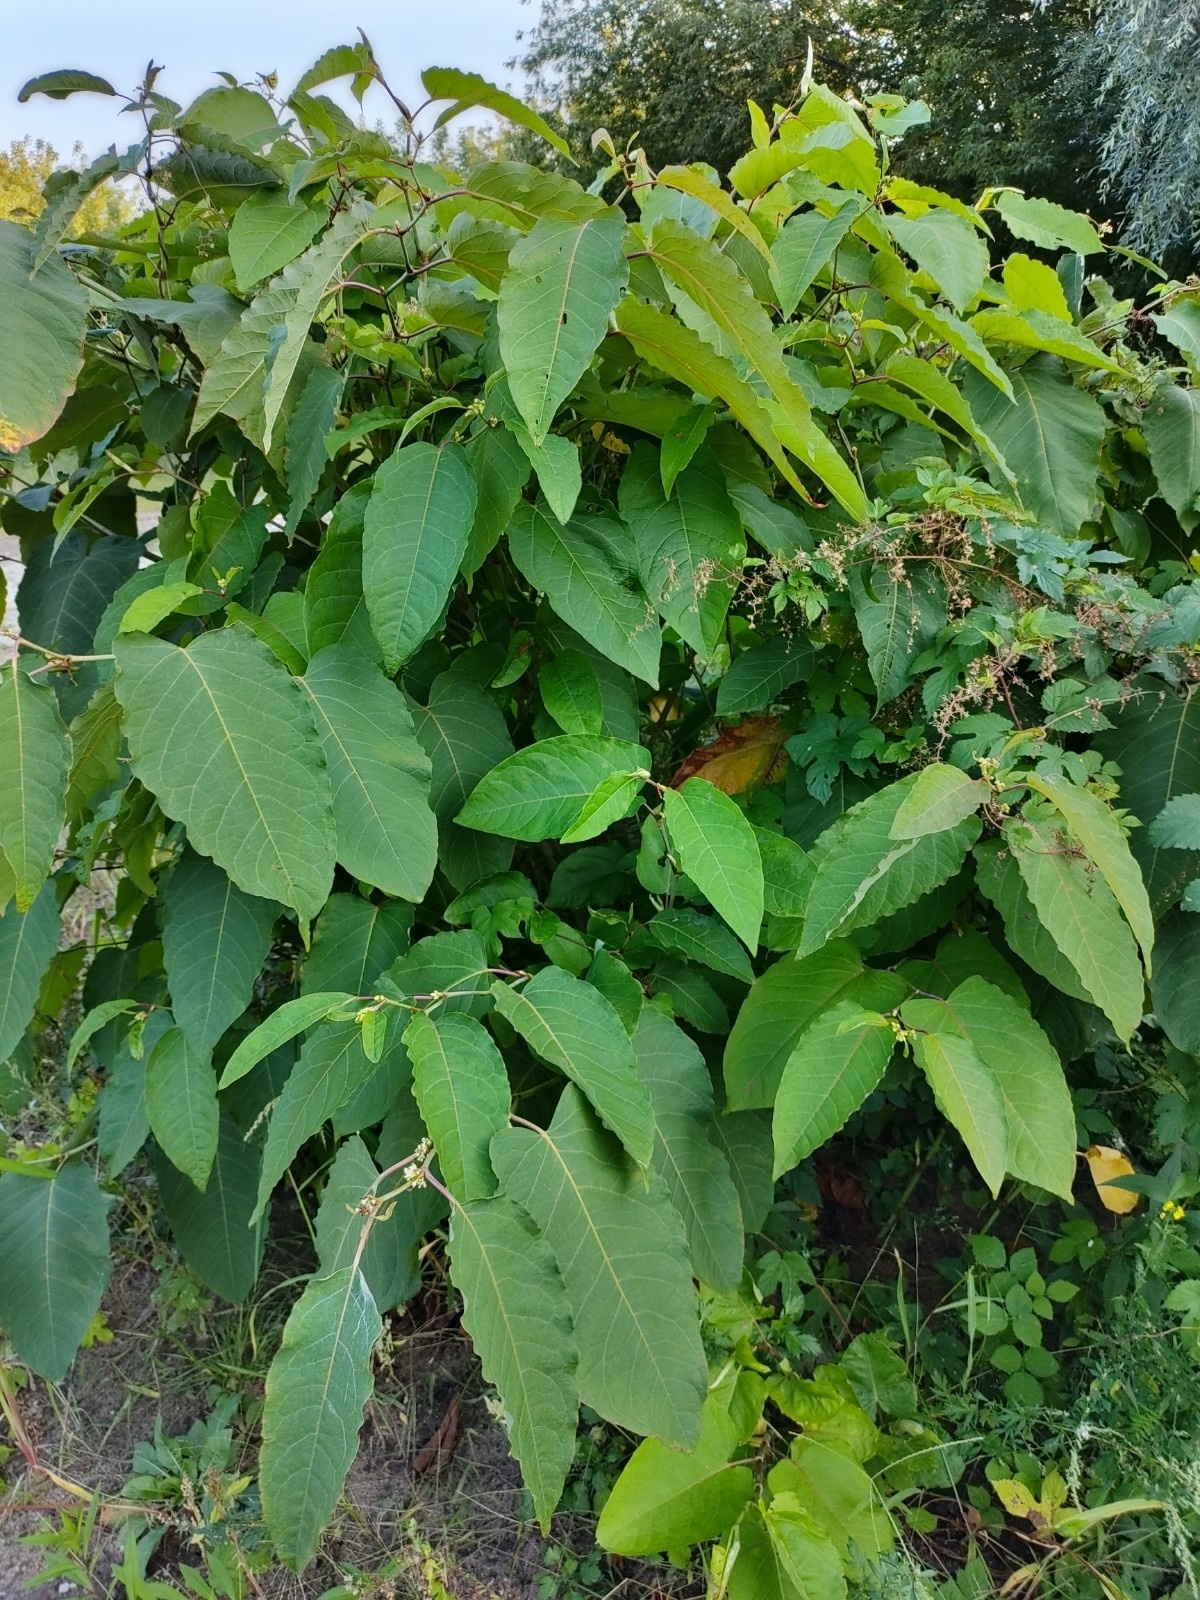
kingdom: Plantae
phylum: Tracheophyta
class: Magnoliopsida
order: Caryophyllales
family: Polygonaceae
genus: Reynoutria
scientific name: Reynoutria sachalinensis
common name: Giant knotweed
